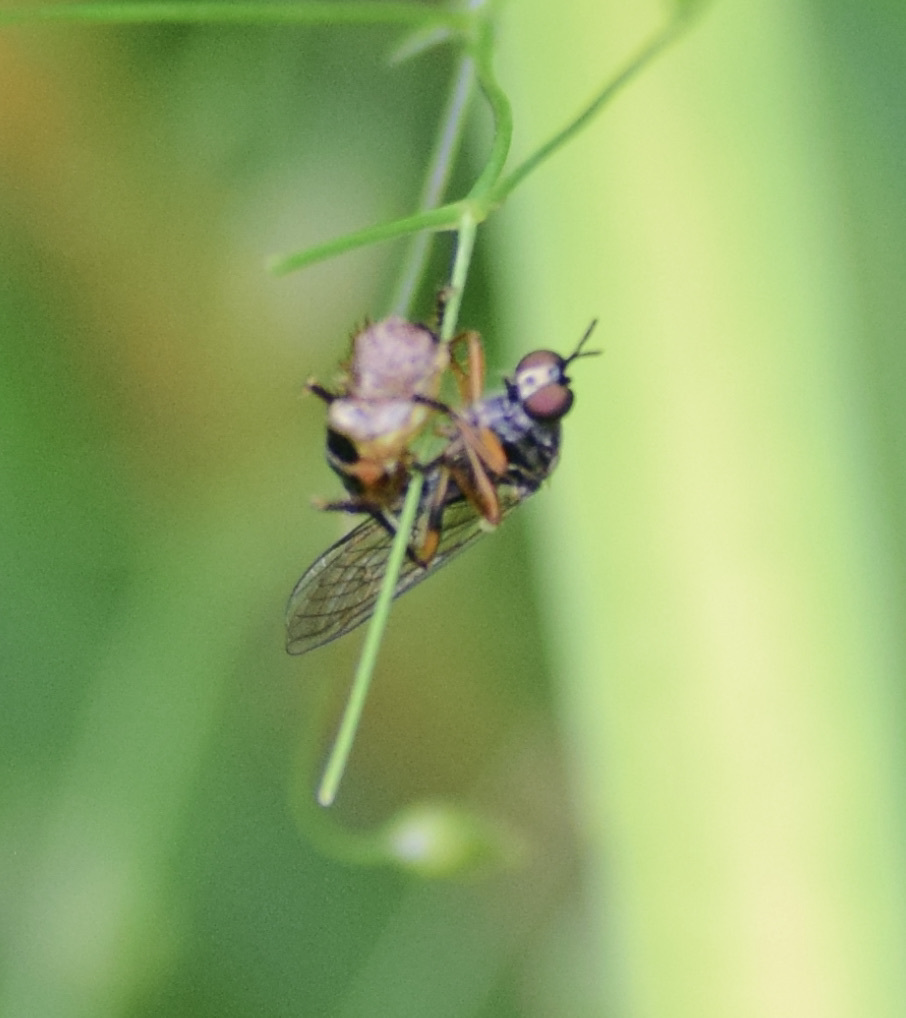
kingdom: Animalia
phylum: Arthropoda
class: Insecta
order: Diptera
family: Asilidae
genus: Dioctria
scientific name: Dioctria hyalipennis
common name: Stripe-legged robberfly
